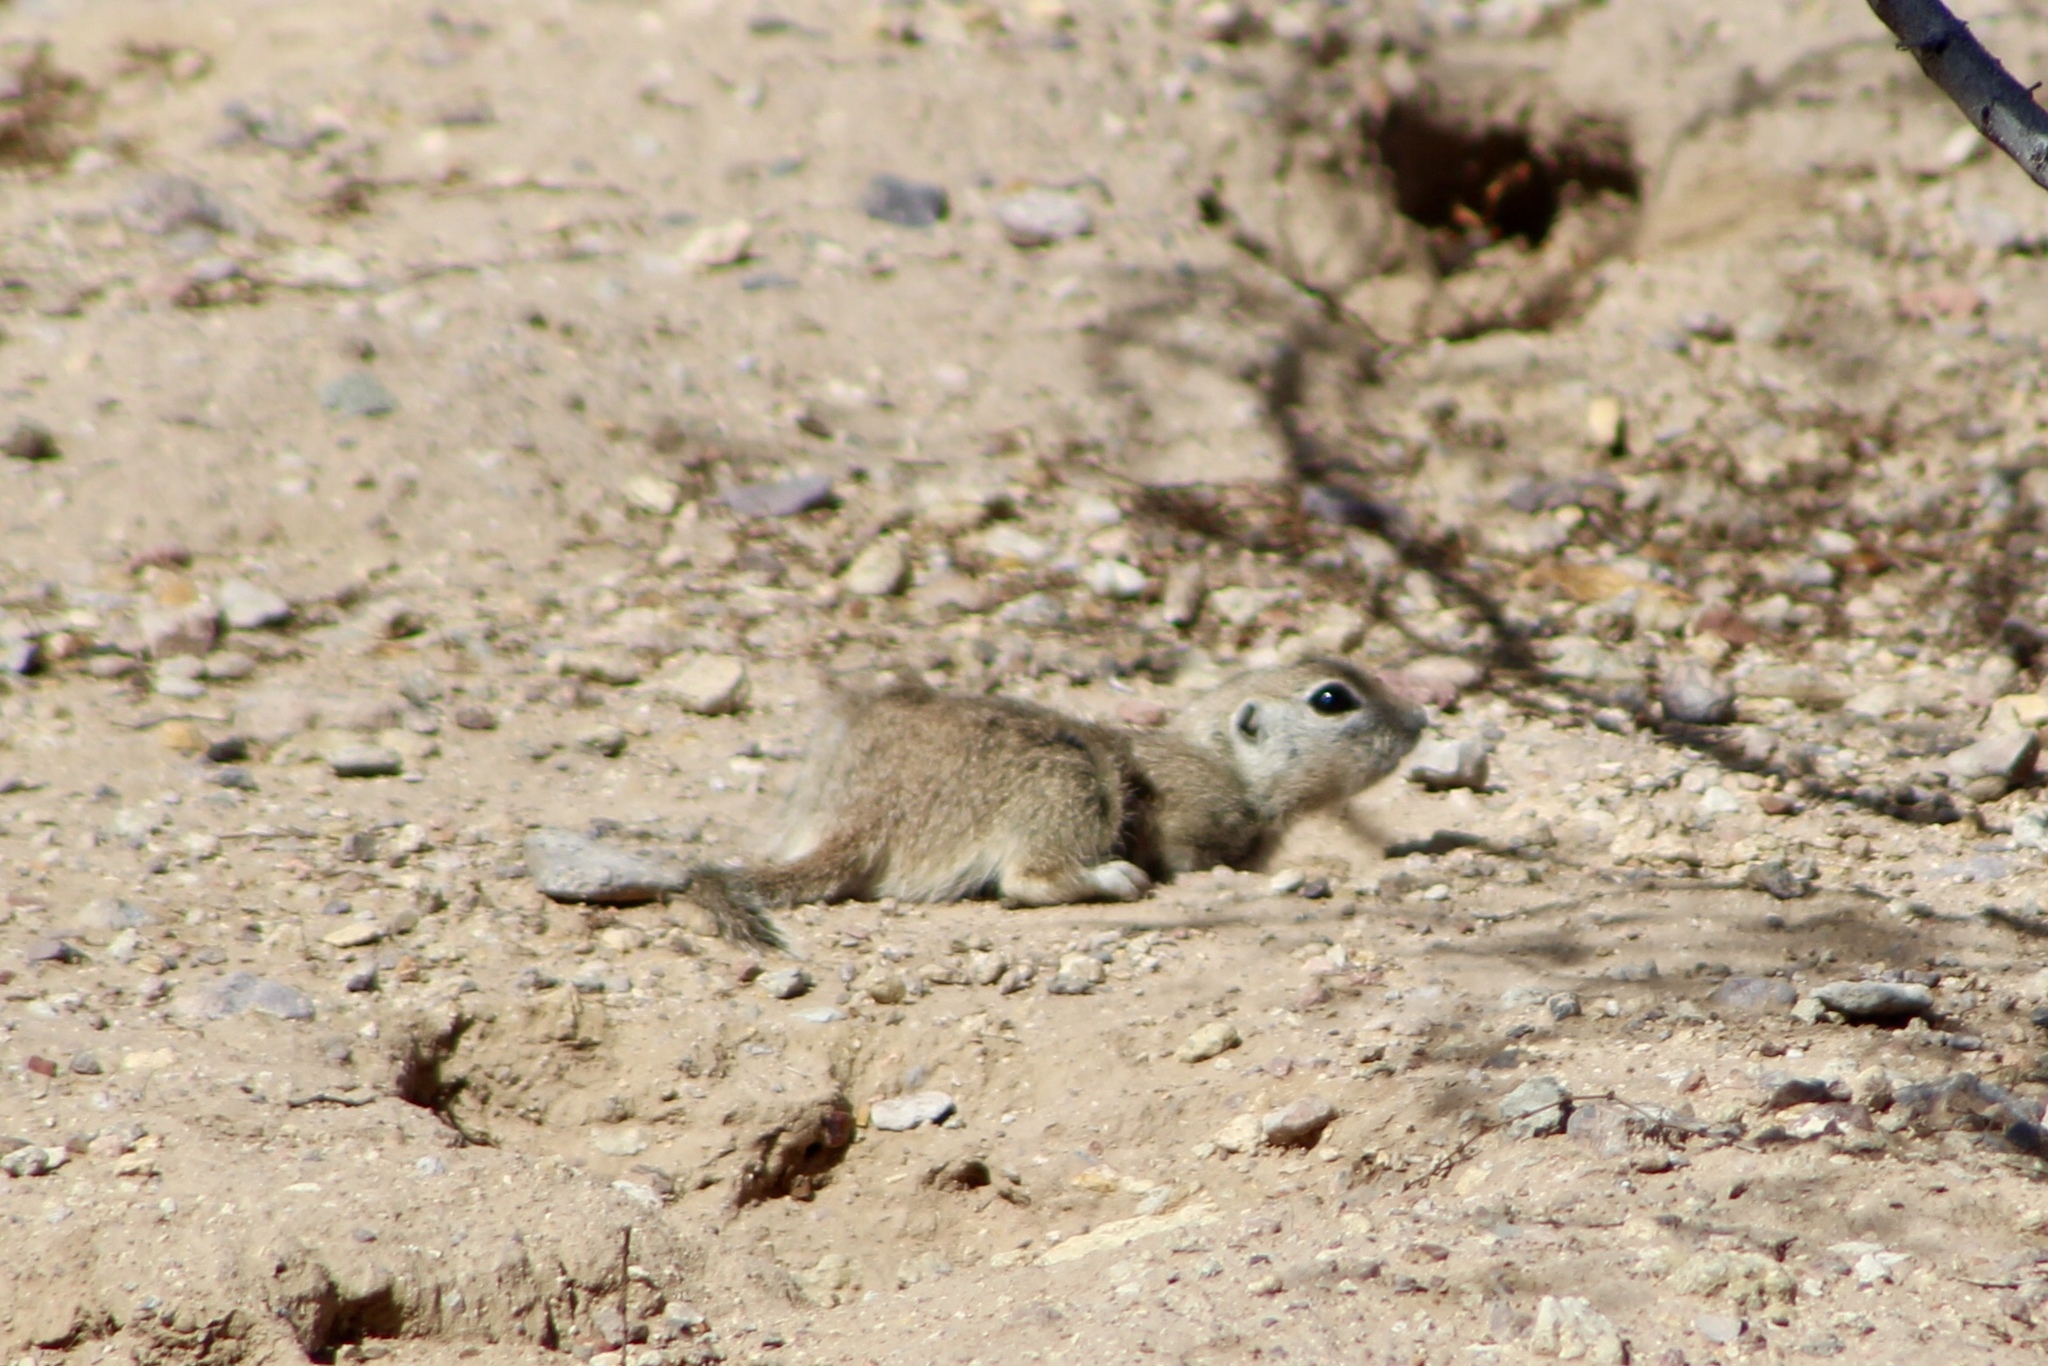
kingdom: Animalia
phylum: Chordata
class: Mammalia
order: Rodentia
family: Sciuridae
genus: Xerospermophilus
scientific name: Xerospermophilus tereticaudus
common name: Round-tailed ground squirrel
